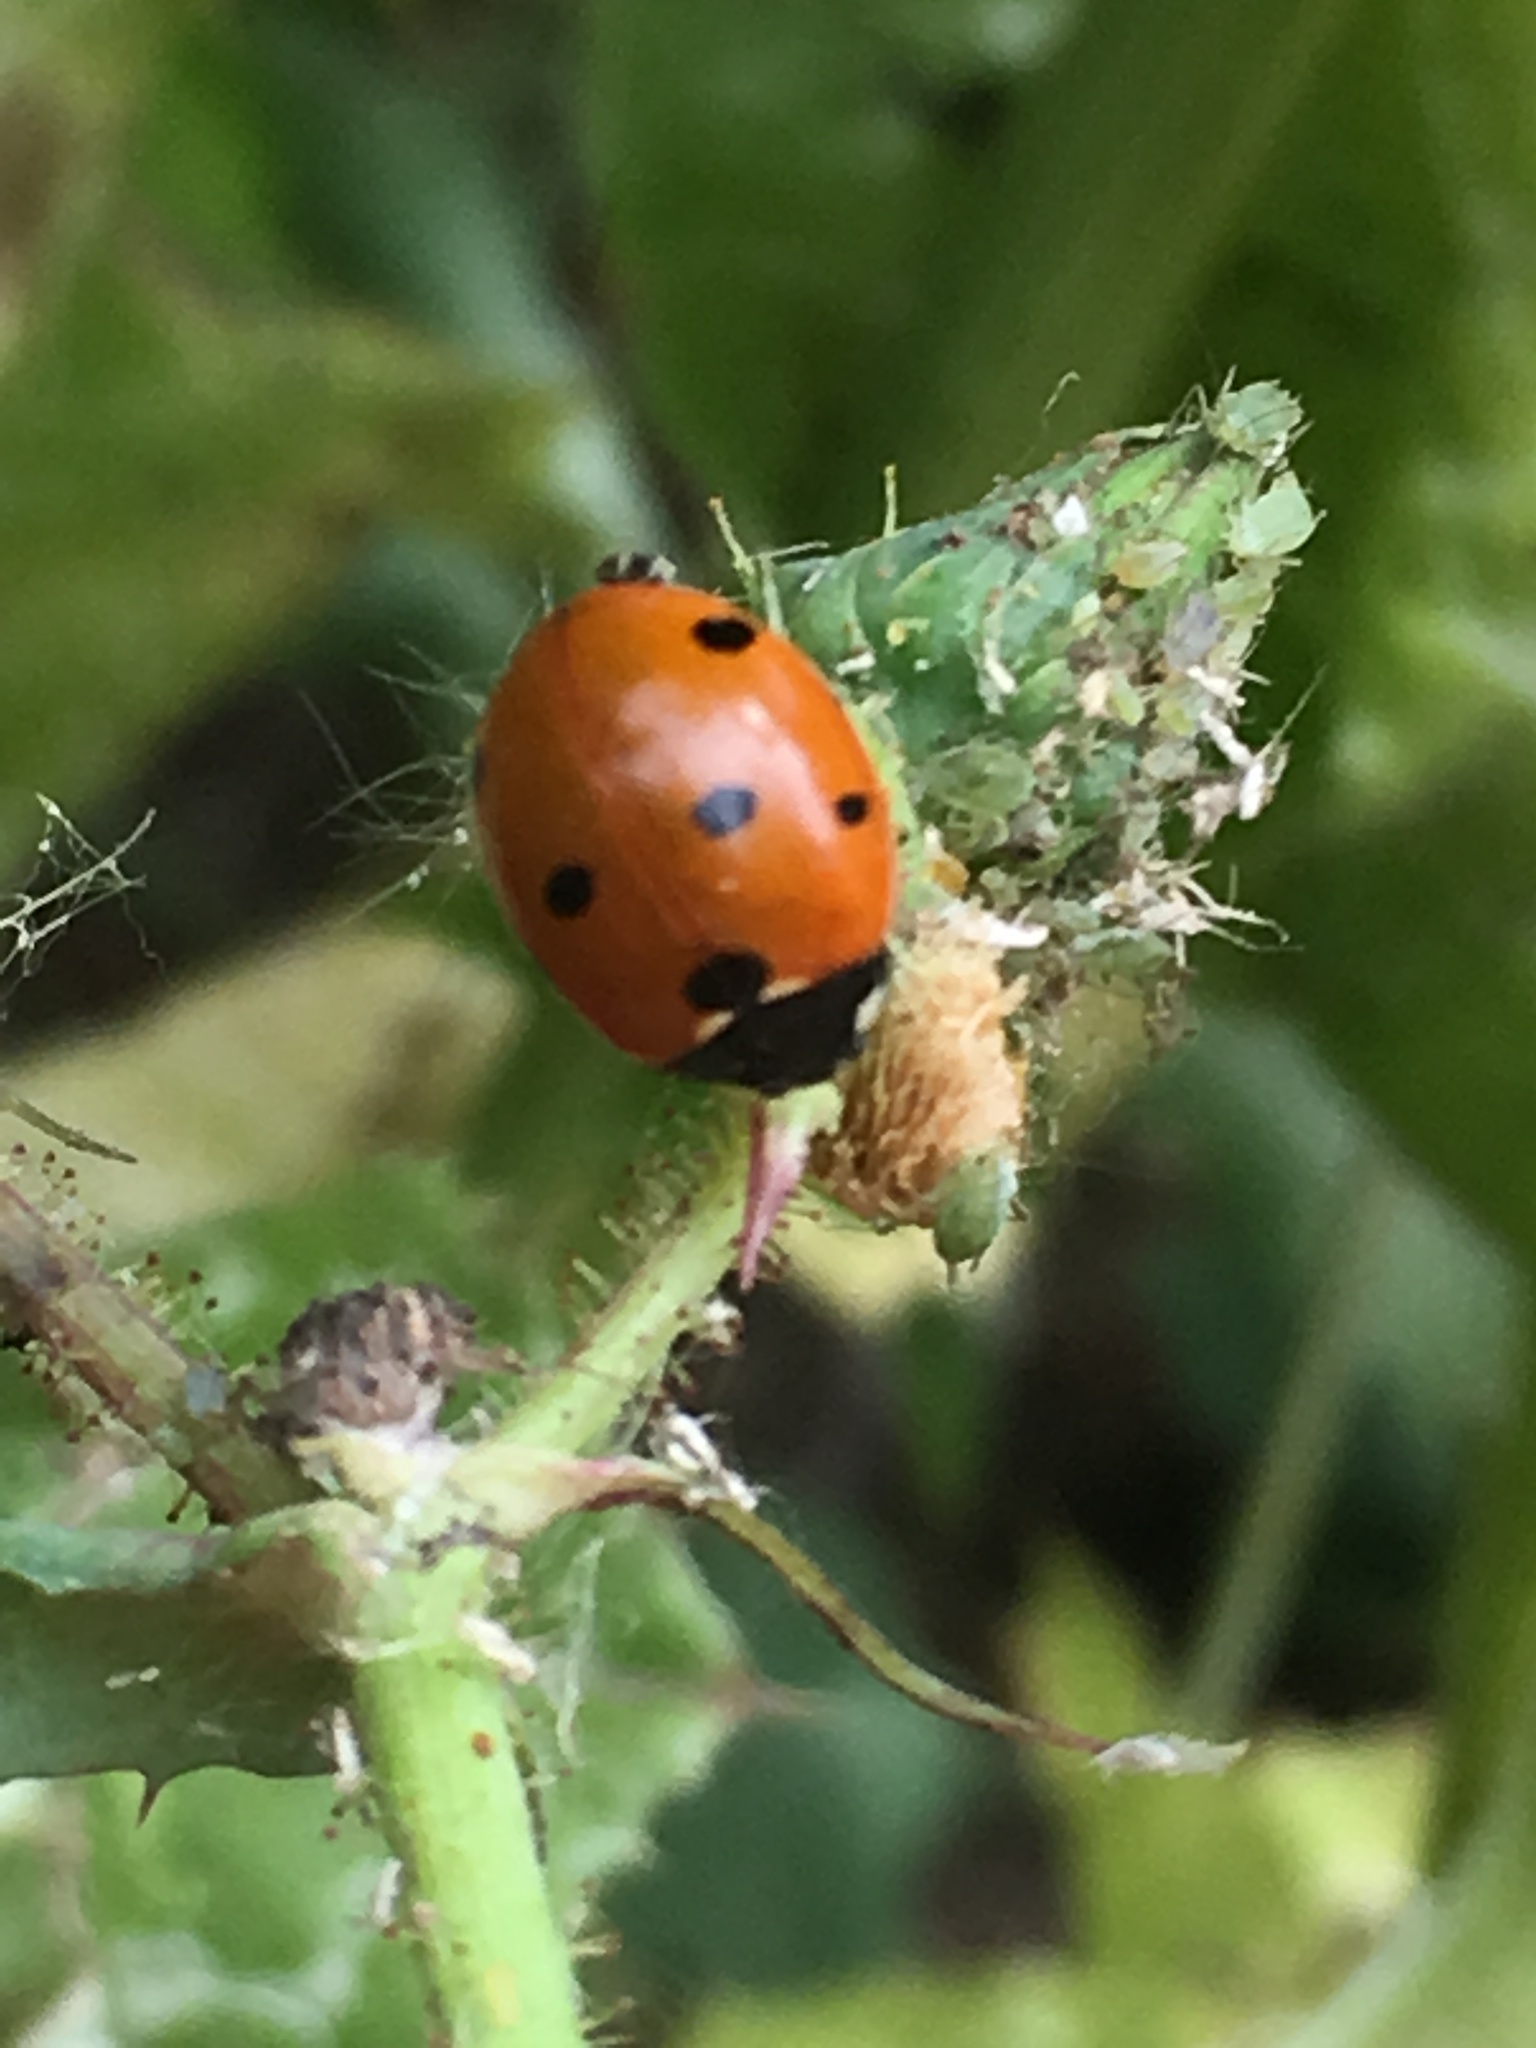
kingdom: Animalia
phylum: Arthropoda
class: Insecta
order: Coleoptera
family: Coccinellidae
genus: Coccinella
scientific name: Coccinella septempunctata
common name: Sevenspotted lady beetle
